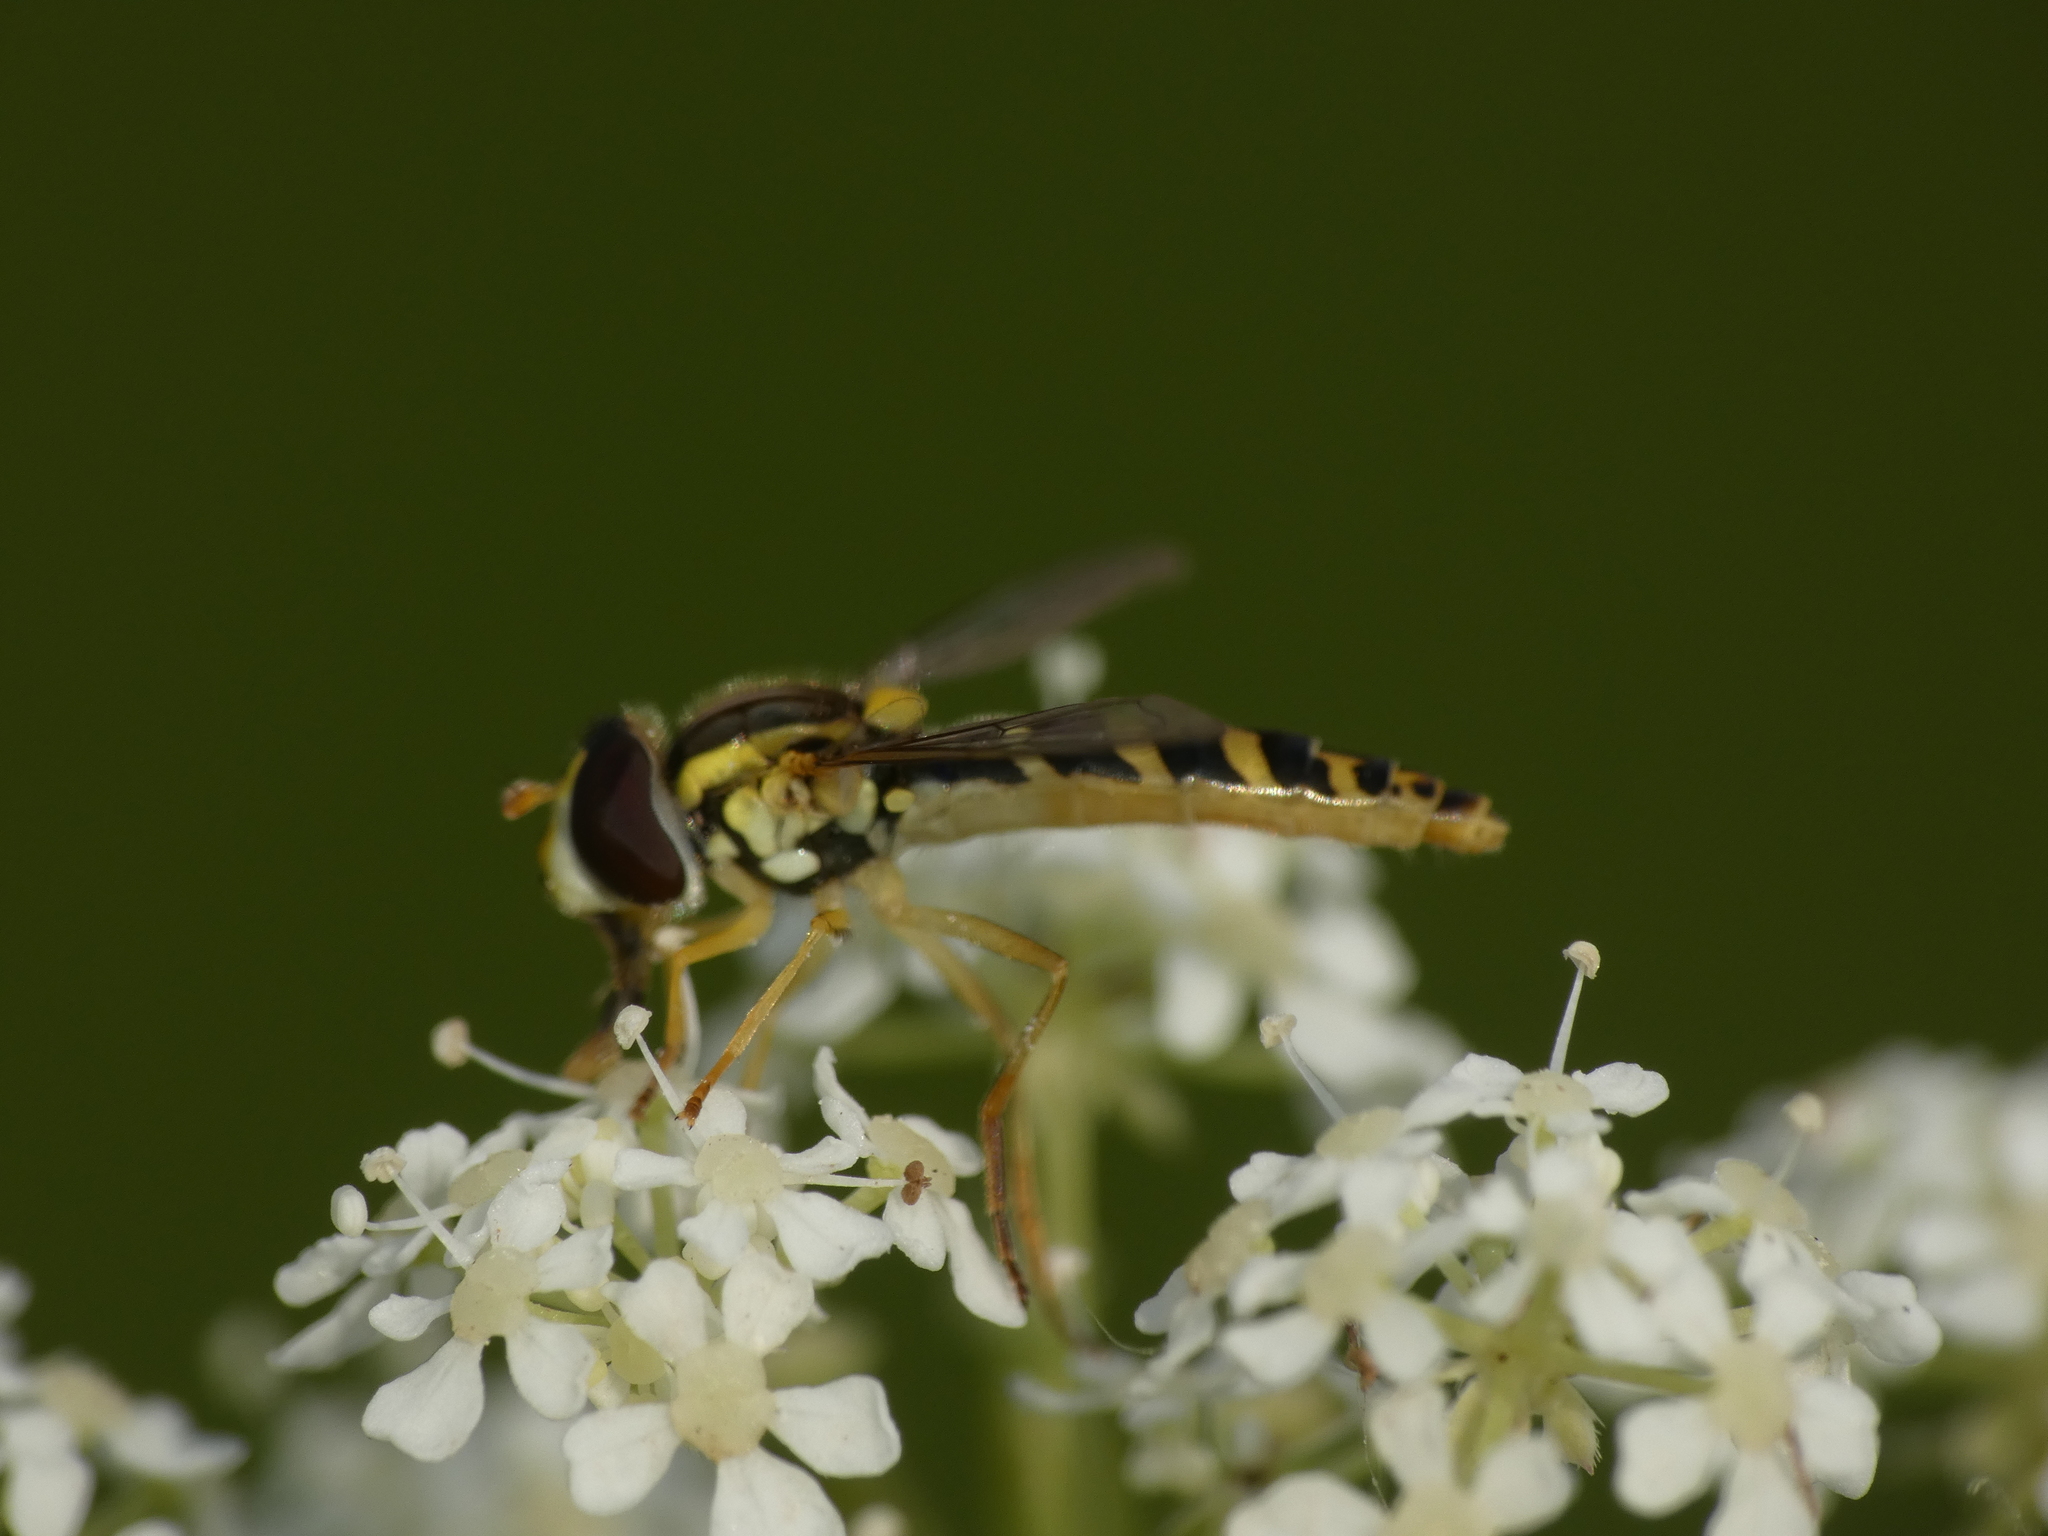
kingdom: Animalia
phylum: Arthropoda
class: Insecta
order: Diptera
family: Syrphidae
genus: Sphaerophoria
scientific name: Sphaerophoria
